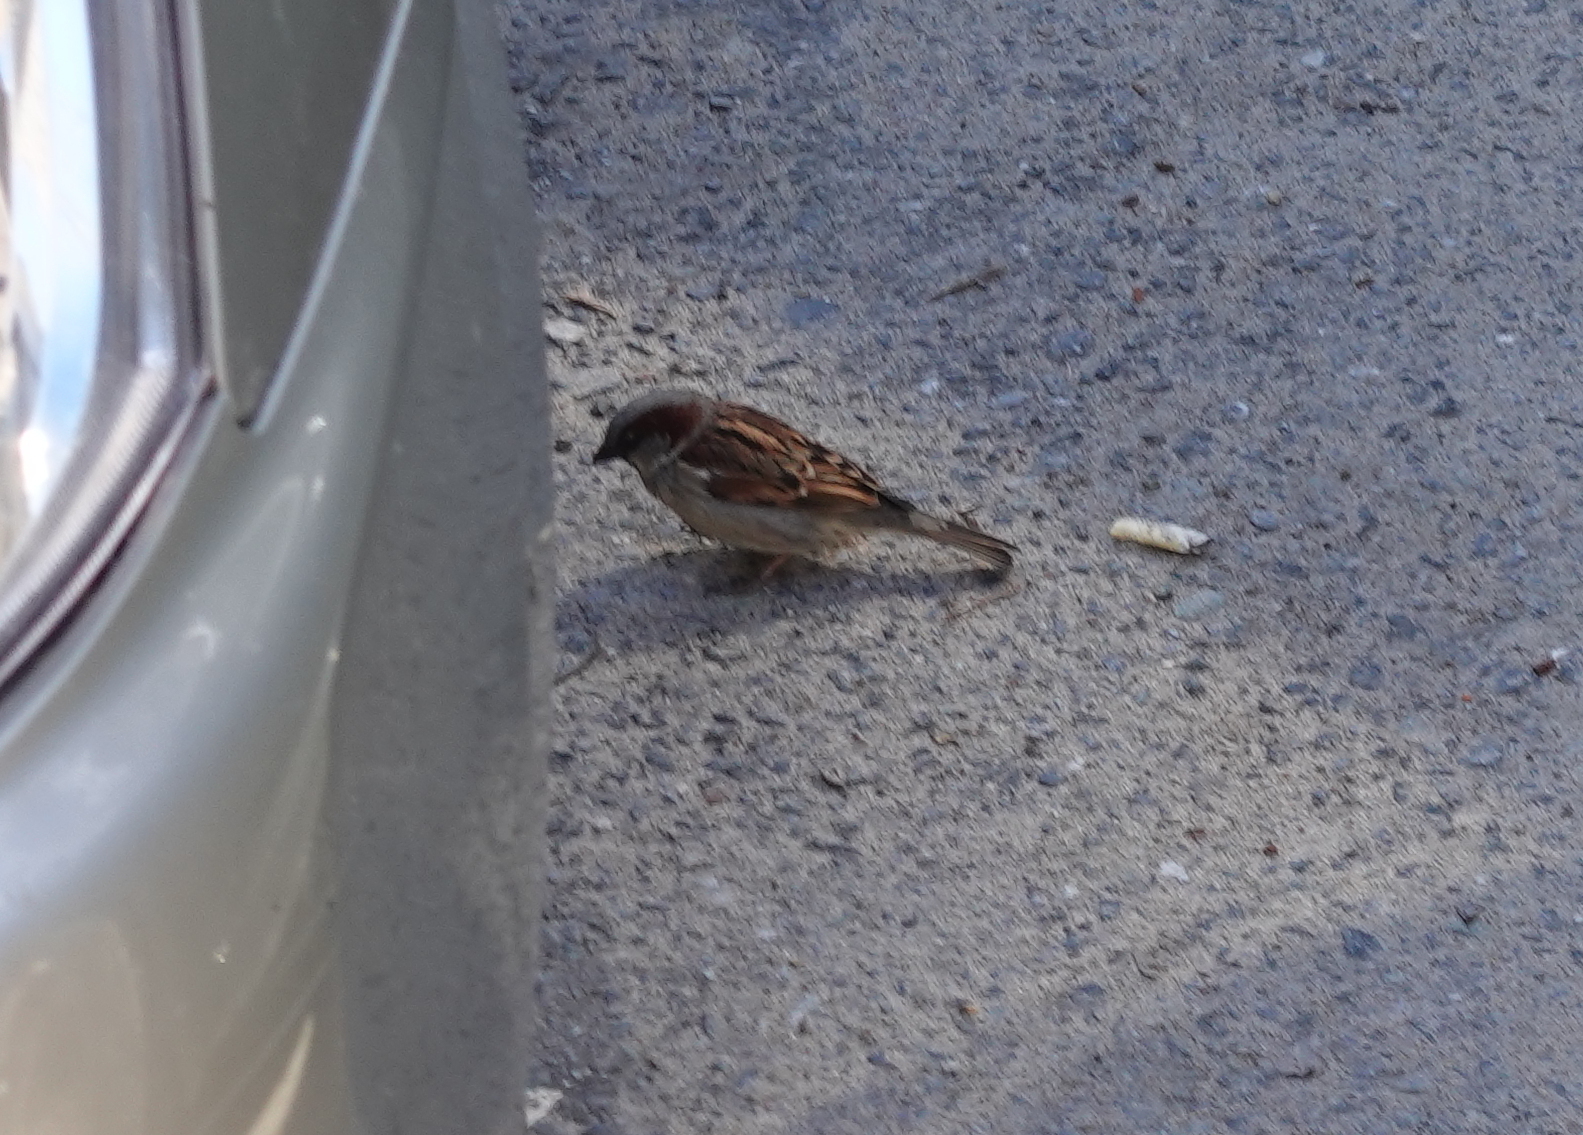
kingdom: Animalia
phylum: Chordata
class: Aves
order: Passeriformes
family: Passeridae
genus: Passer
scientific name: Passer domesticus
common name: House sparrow
